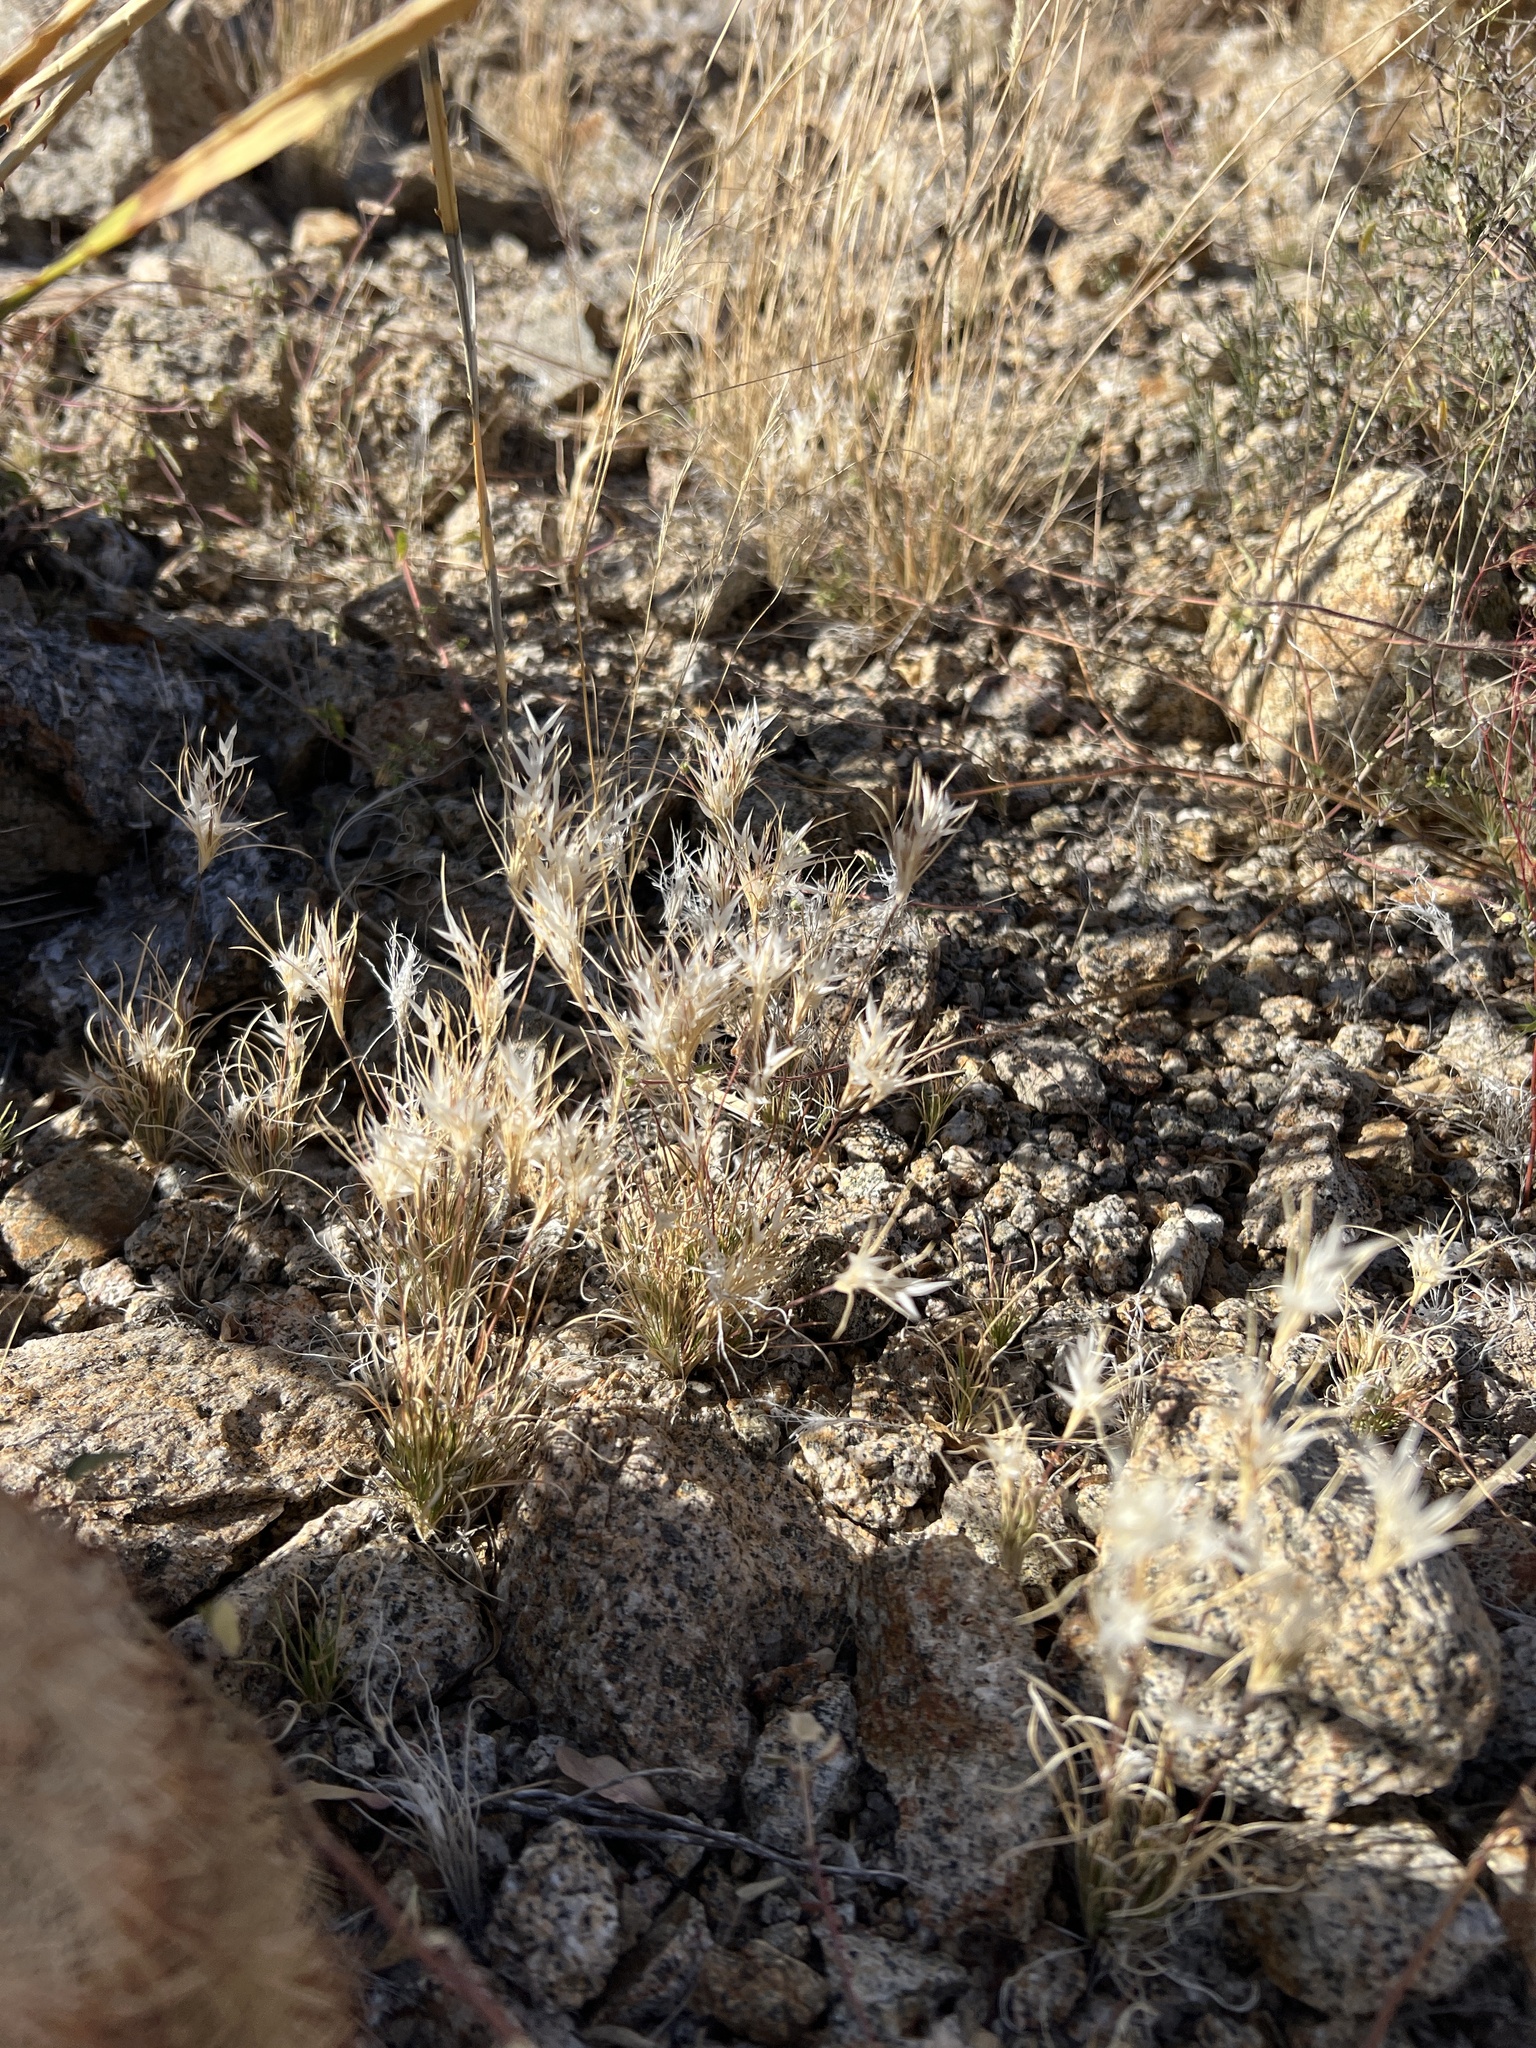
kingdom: Plantae
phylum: Tracheophyta
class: Liliopsida
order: Poales
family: Poaceae
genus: Dasyochloa
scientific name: Dasyochloa pulchella
